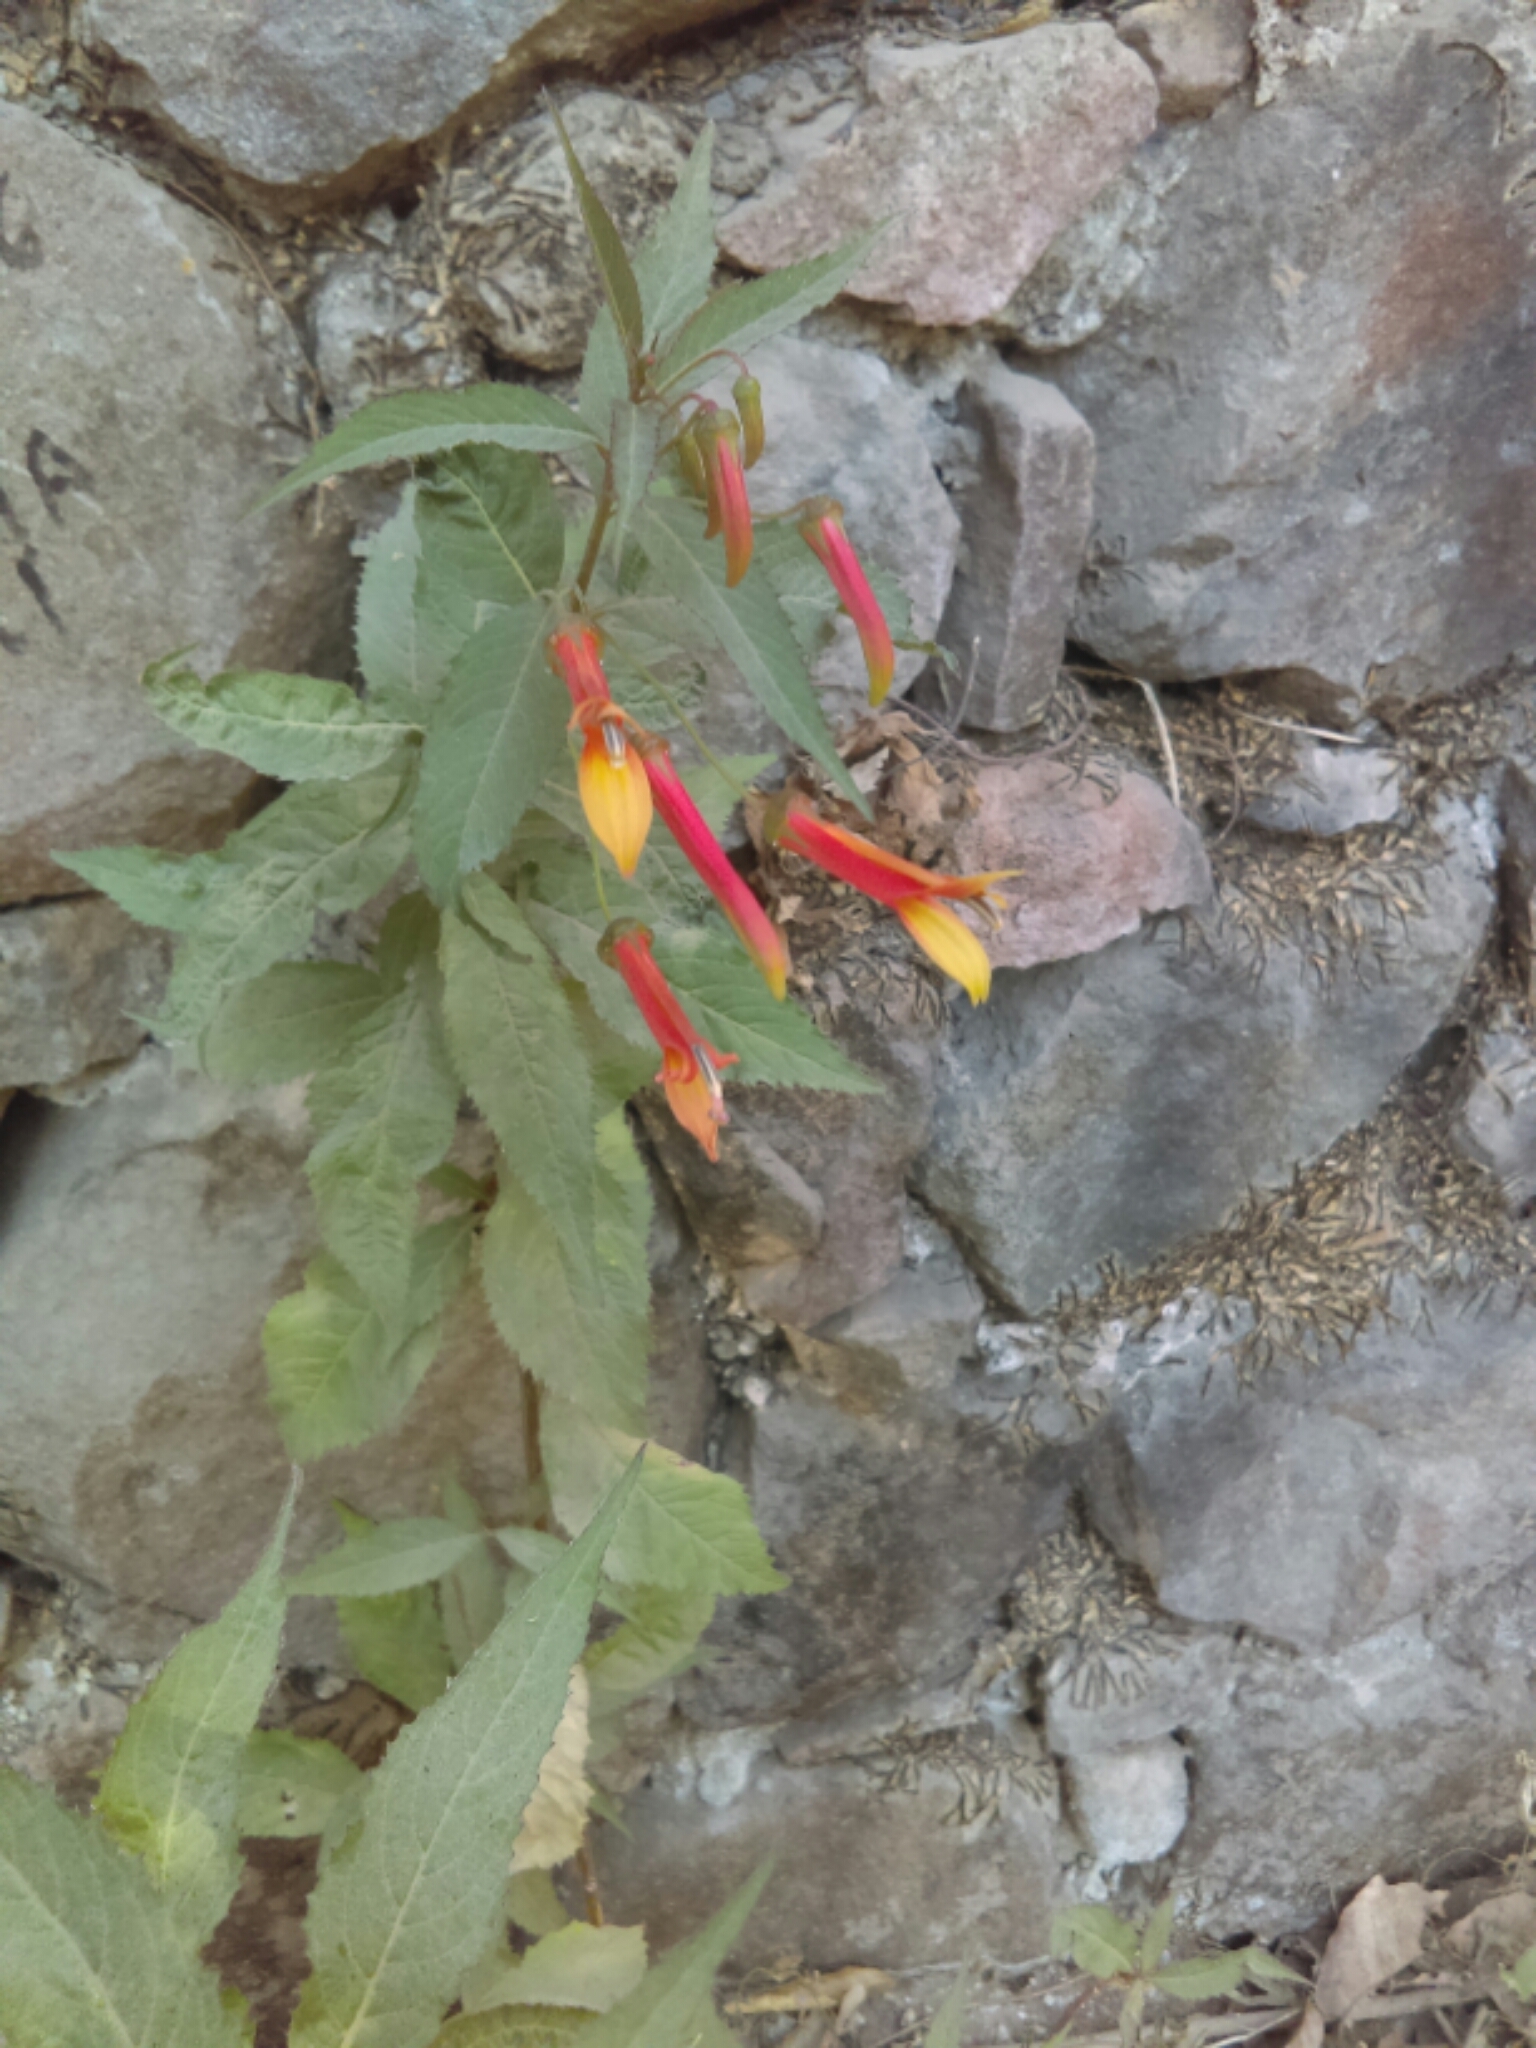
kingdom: Plantae
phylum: Tracheophyta
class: Magnoliopsida
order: Asterales
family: Campanulaceae
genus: Lobelia
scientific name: Lobelia laxiflora
